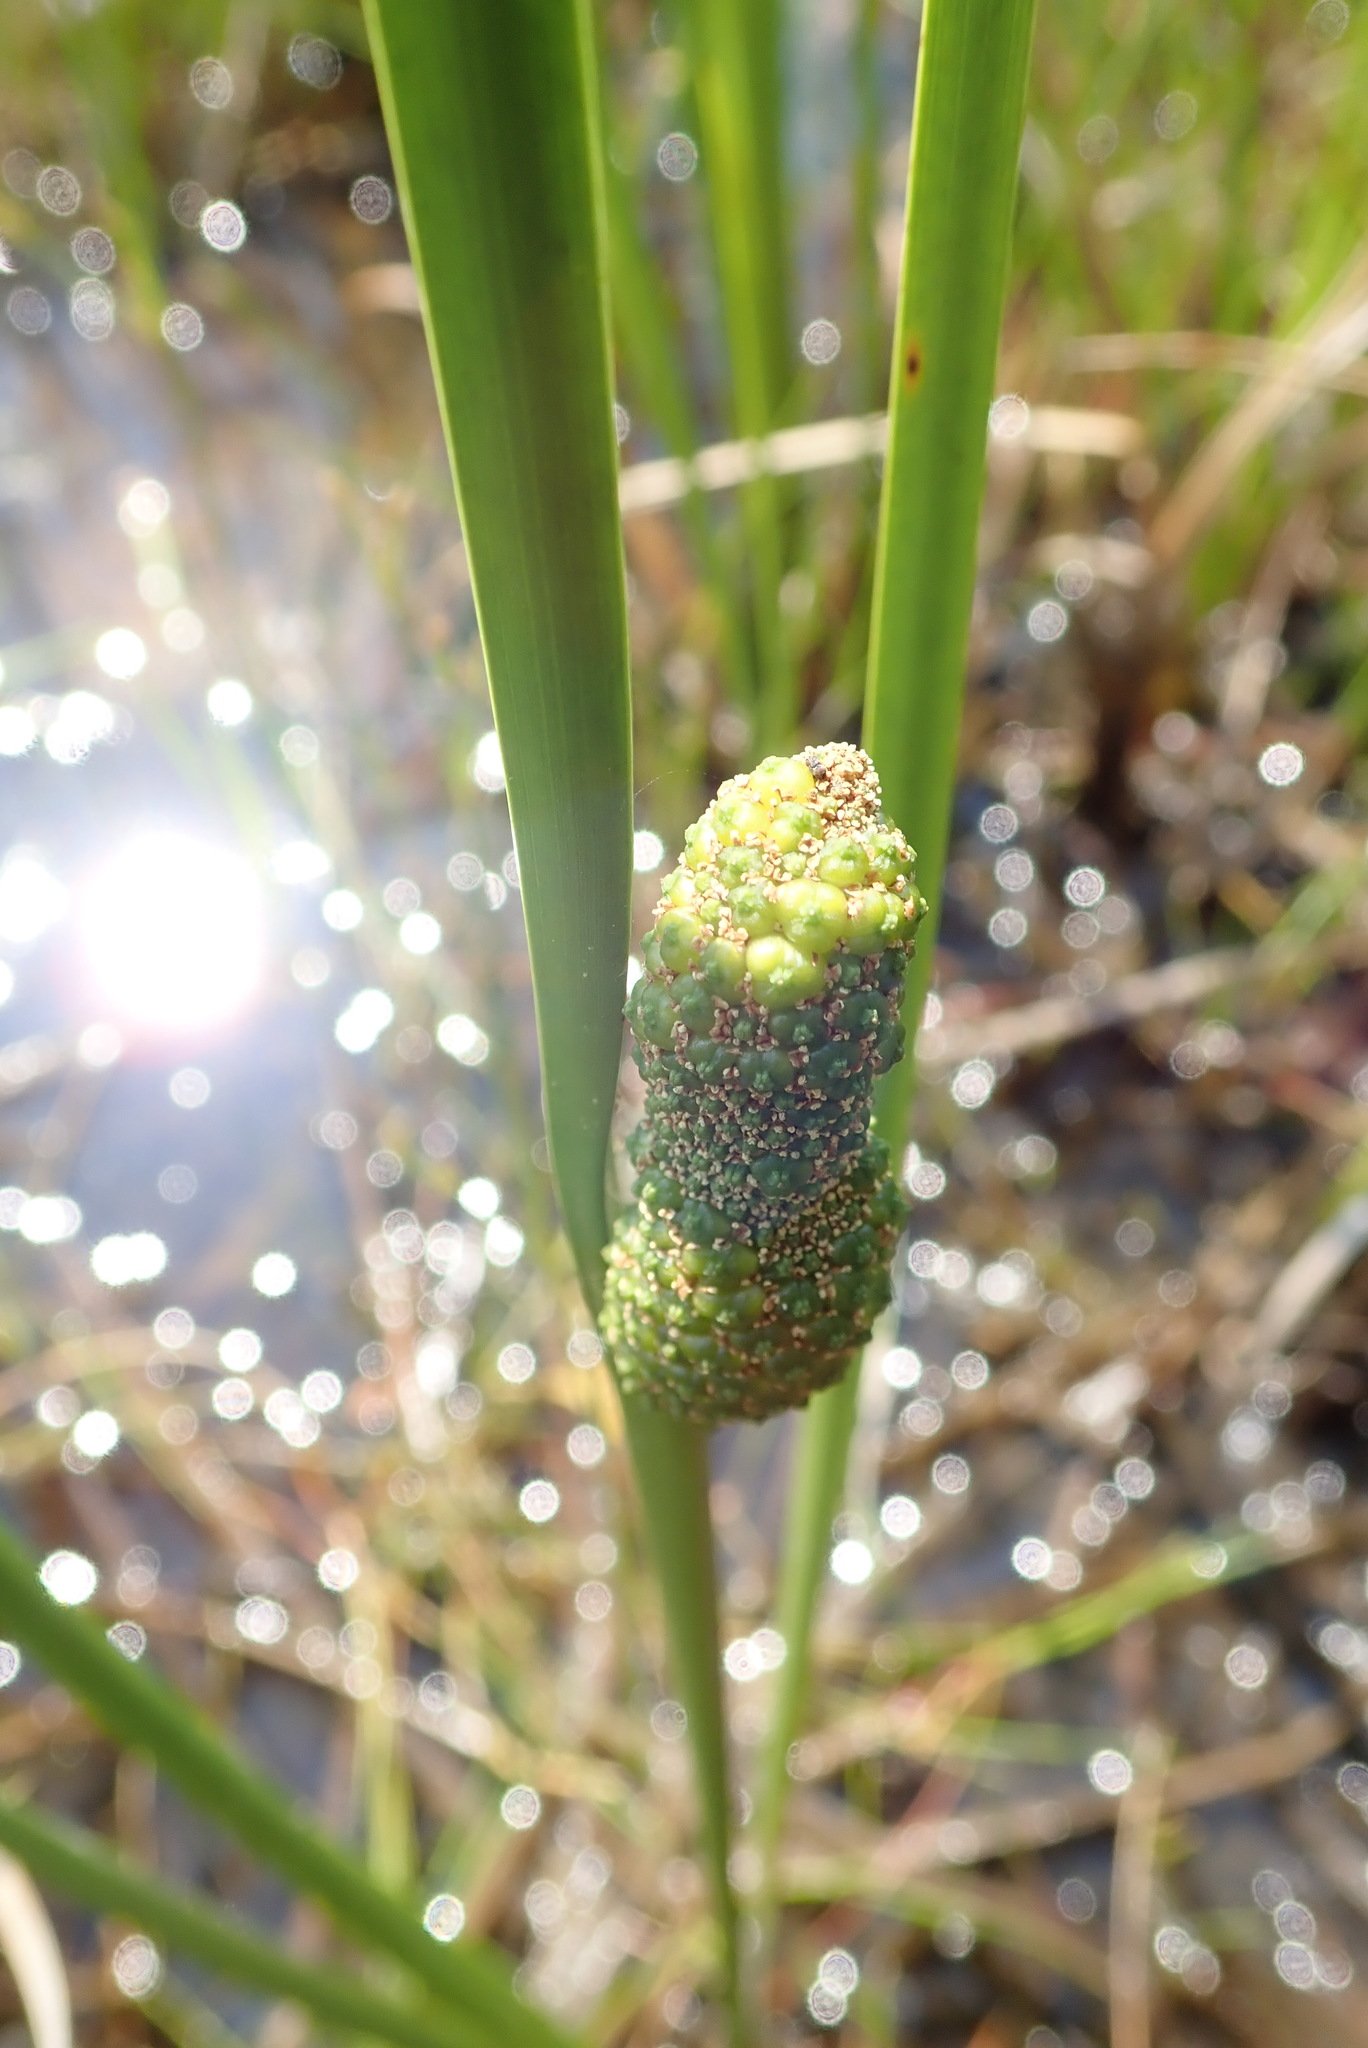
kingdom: Plantae
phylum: Tracheophyta
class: Liliopsida
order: Acorales
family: Acoraceae
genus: Acorus
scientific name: Acorus calamus
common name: Sweet-flag
